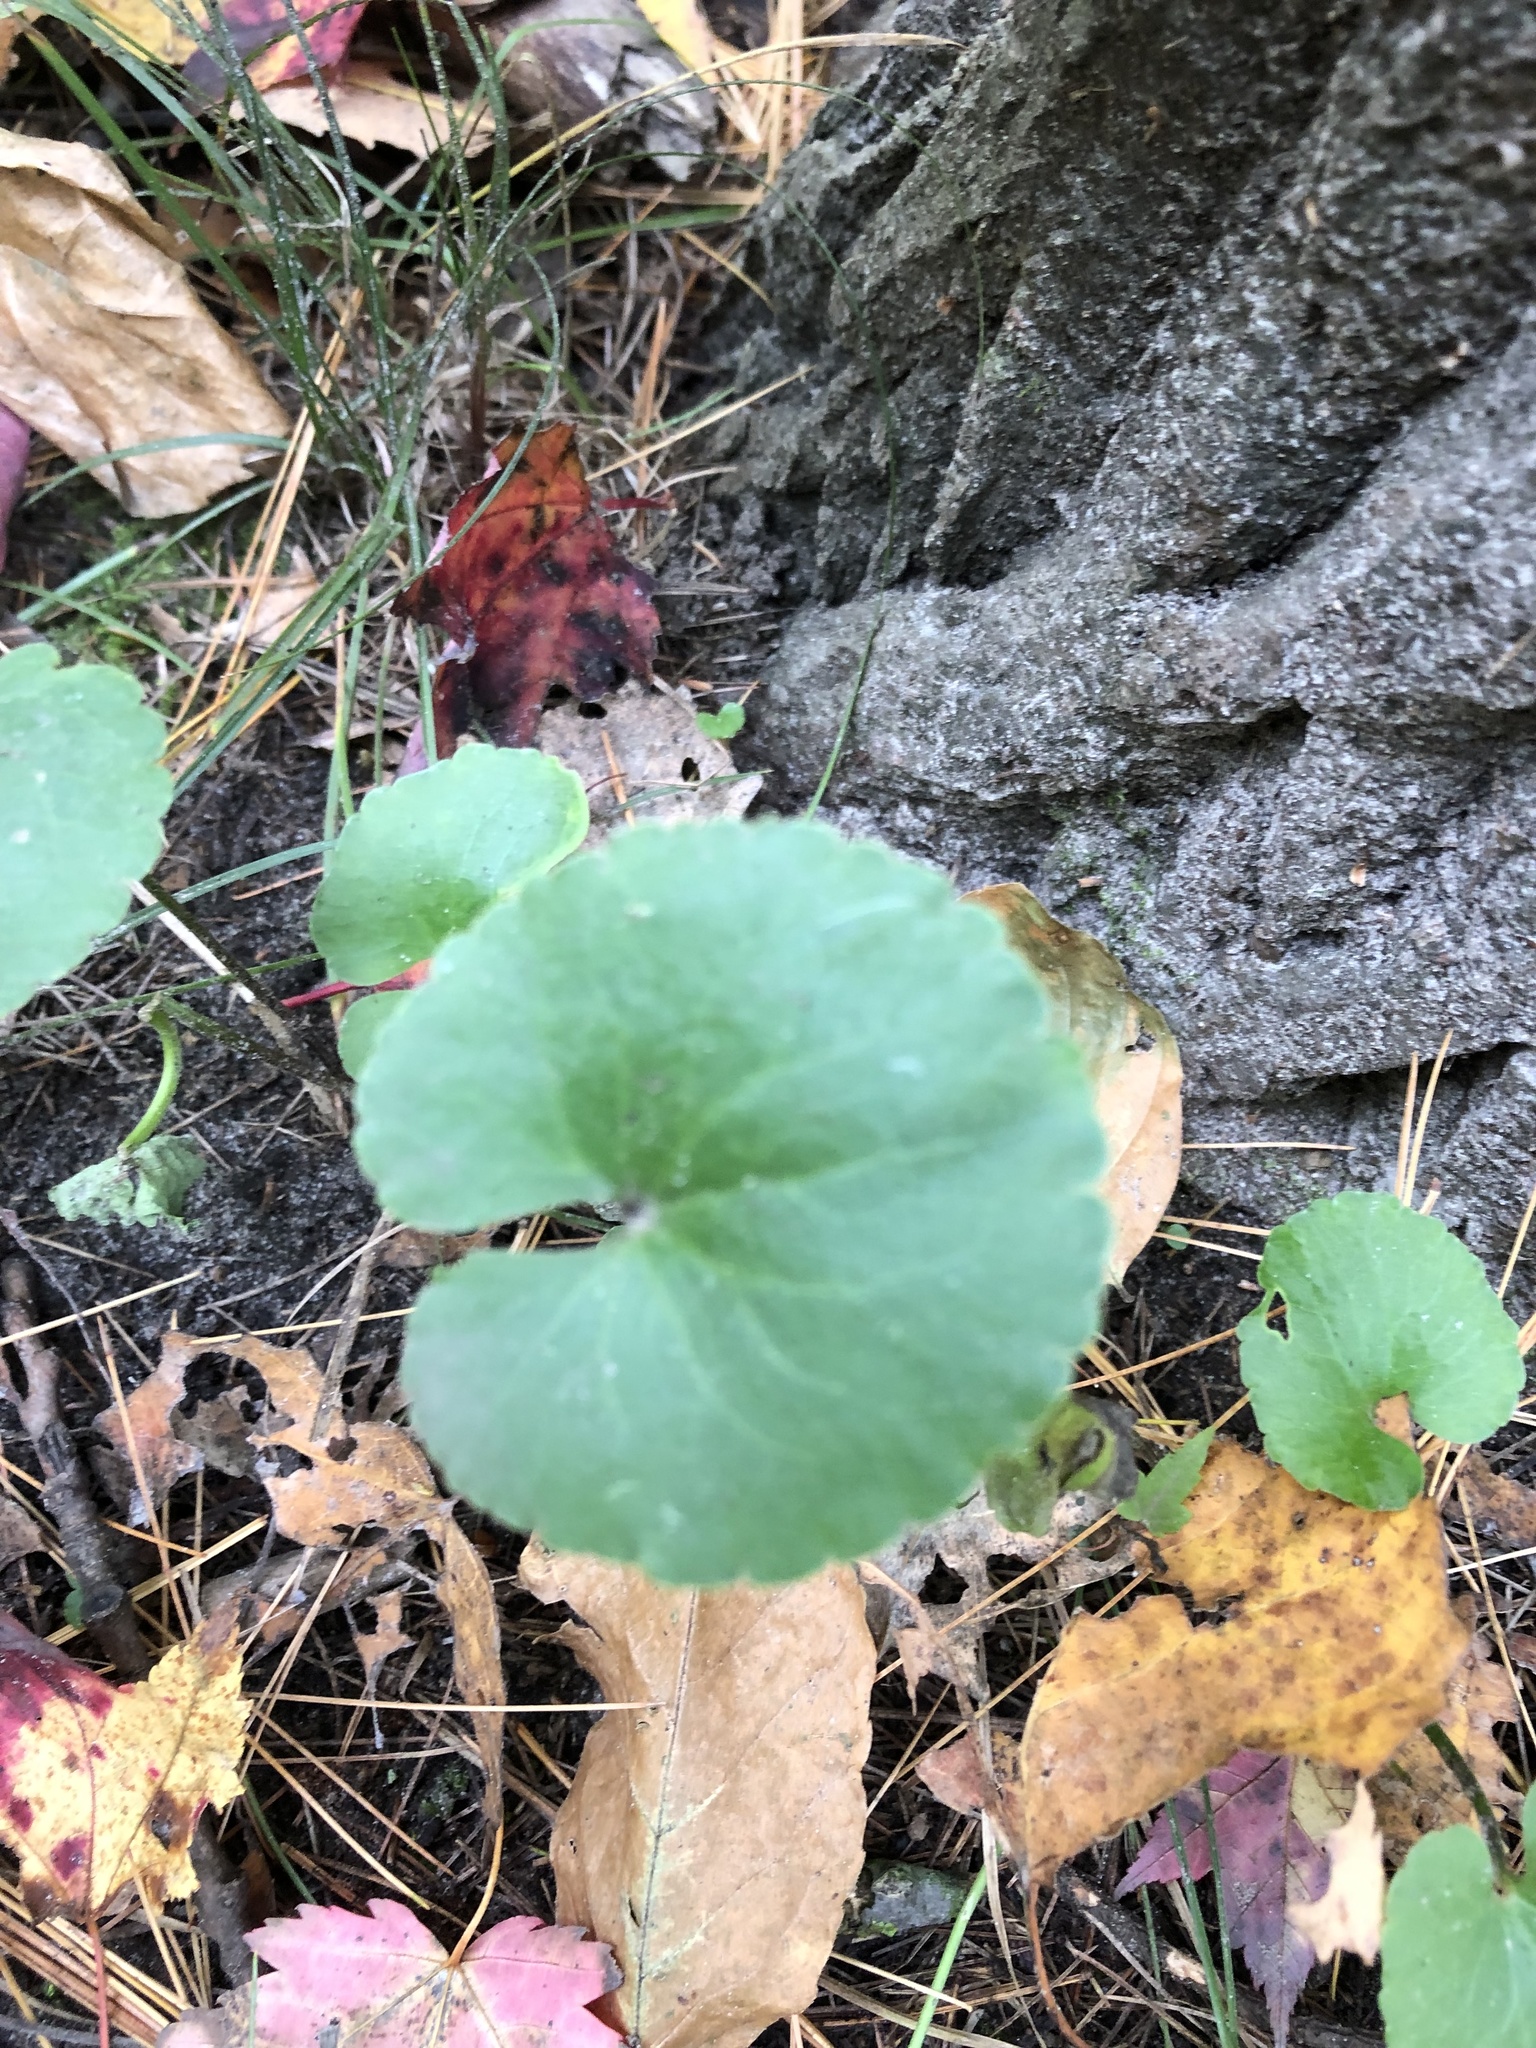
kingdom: Plantae
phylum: Tracheophyta
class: Magnoliopsida
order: Ranunculales
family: Ranunculaceae
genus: Ranunculus
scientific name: Ranunculus abortivus
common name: Early wood buttercup
